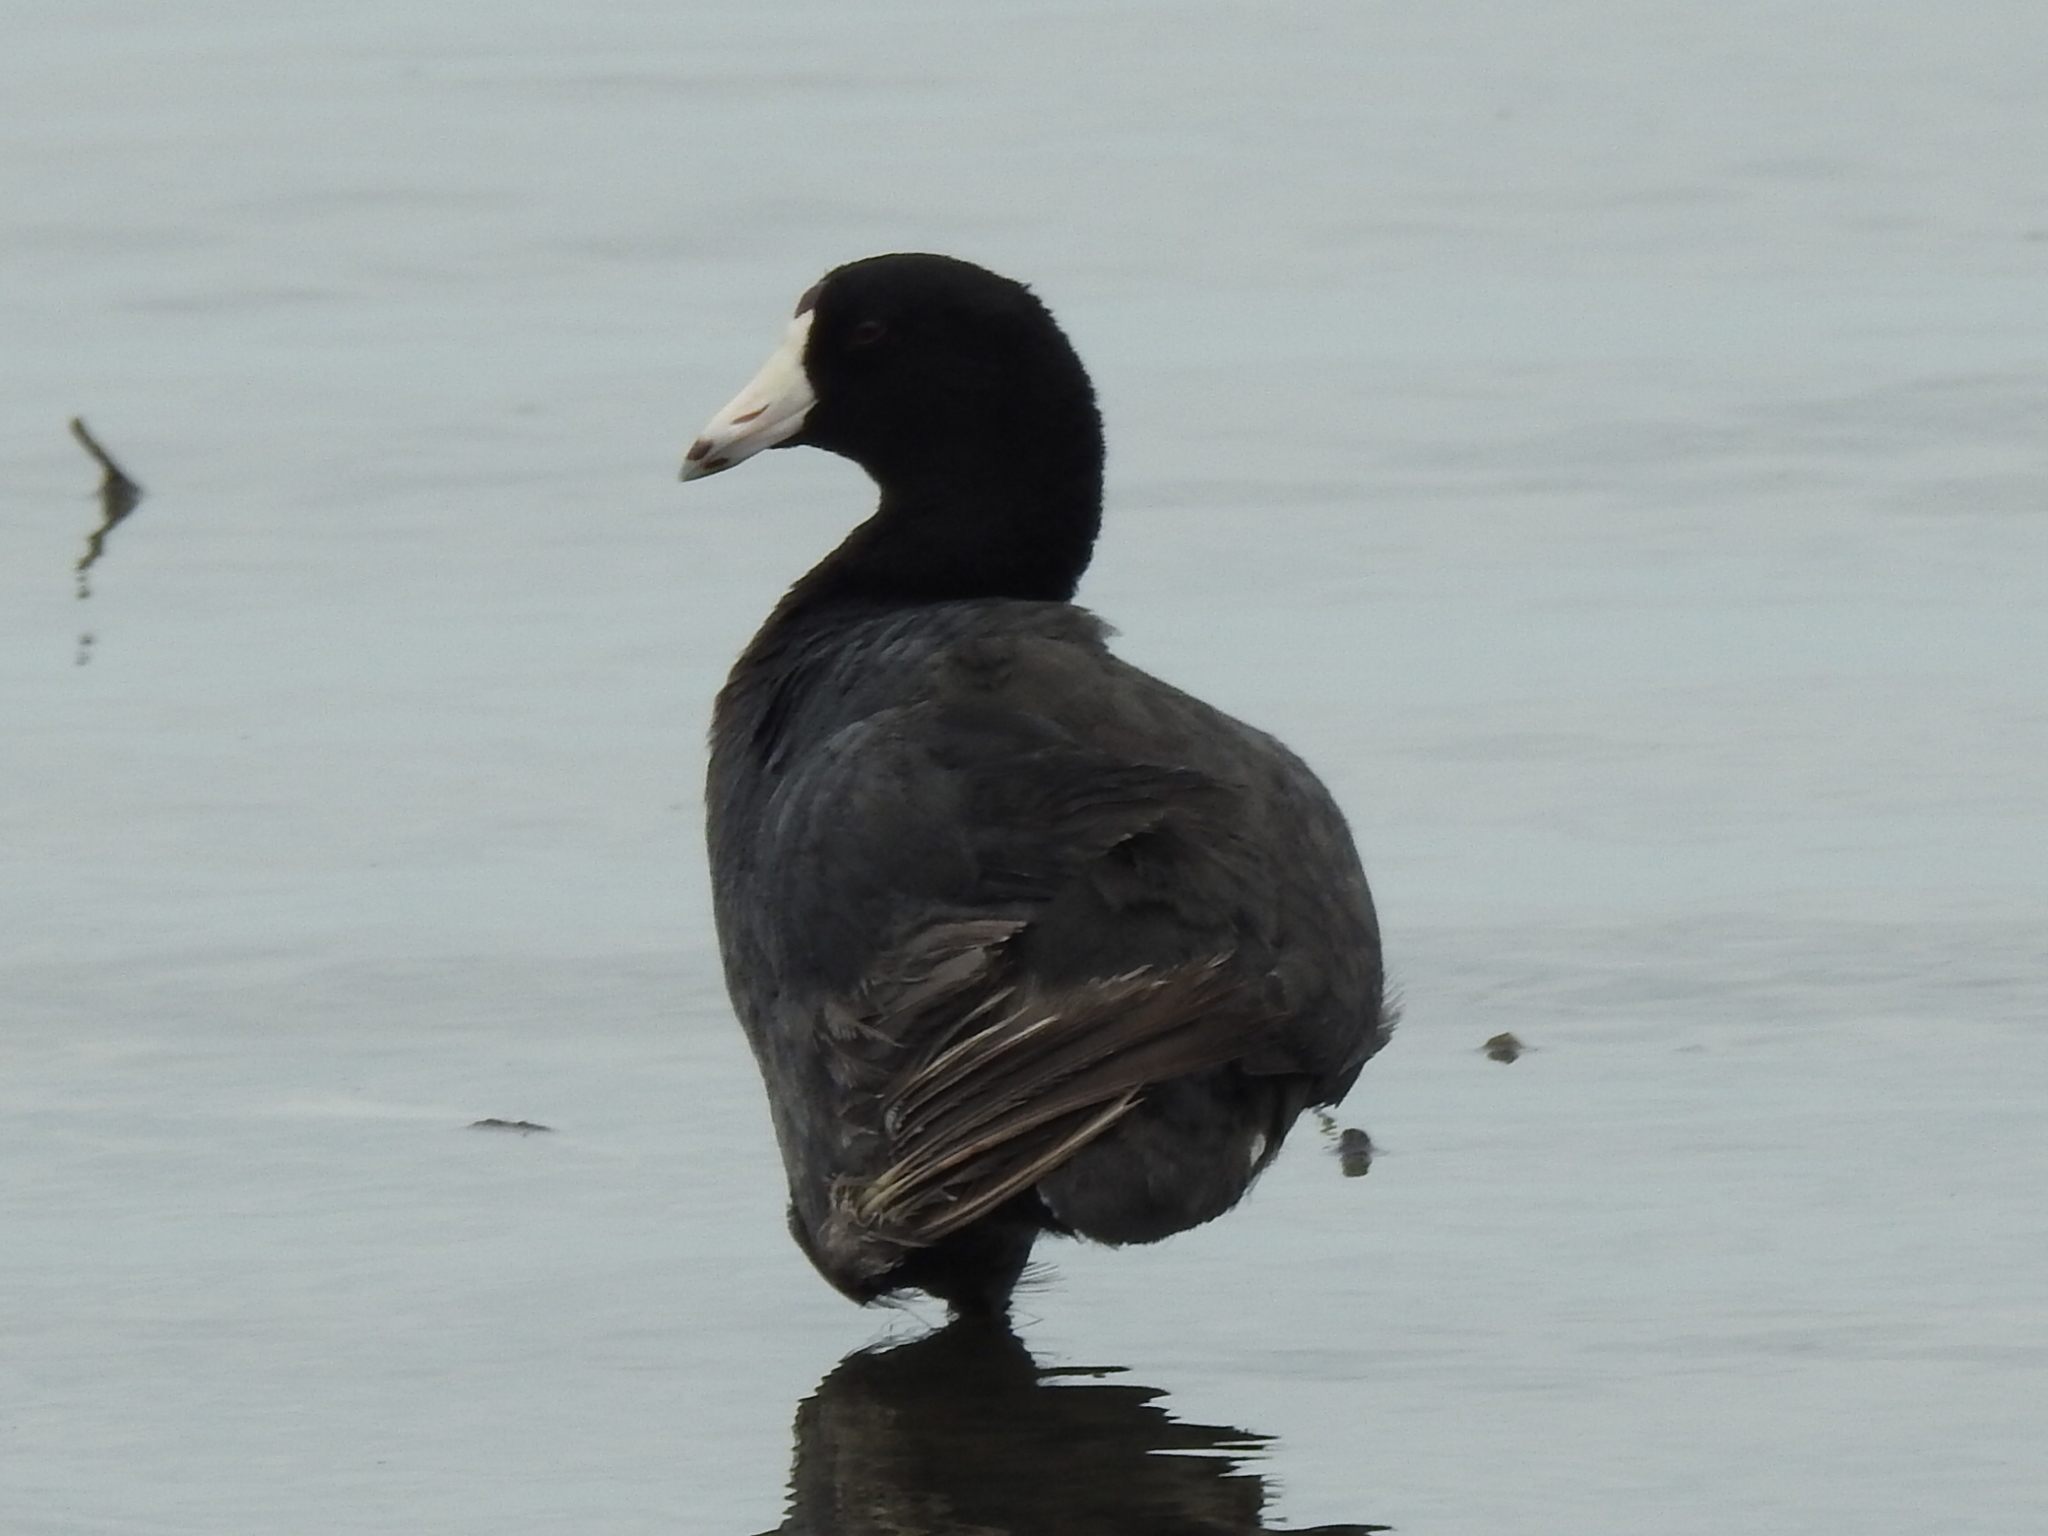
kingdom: Animalia
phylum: Chordata
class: Aves
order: Gruiformes
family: Rallidae
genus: Fulica
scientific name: Fulica americana
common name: American coot
